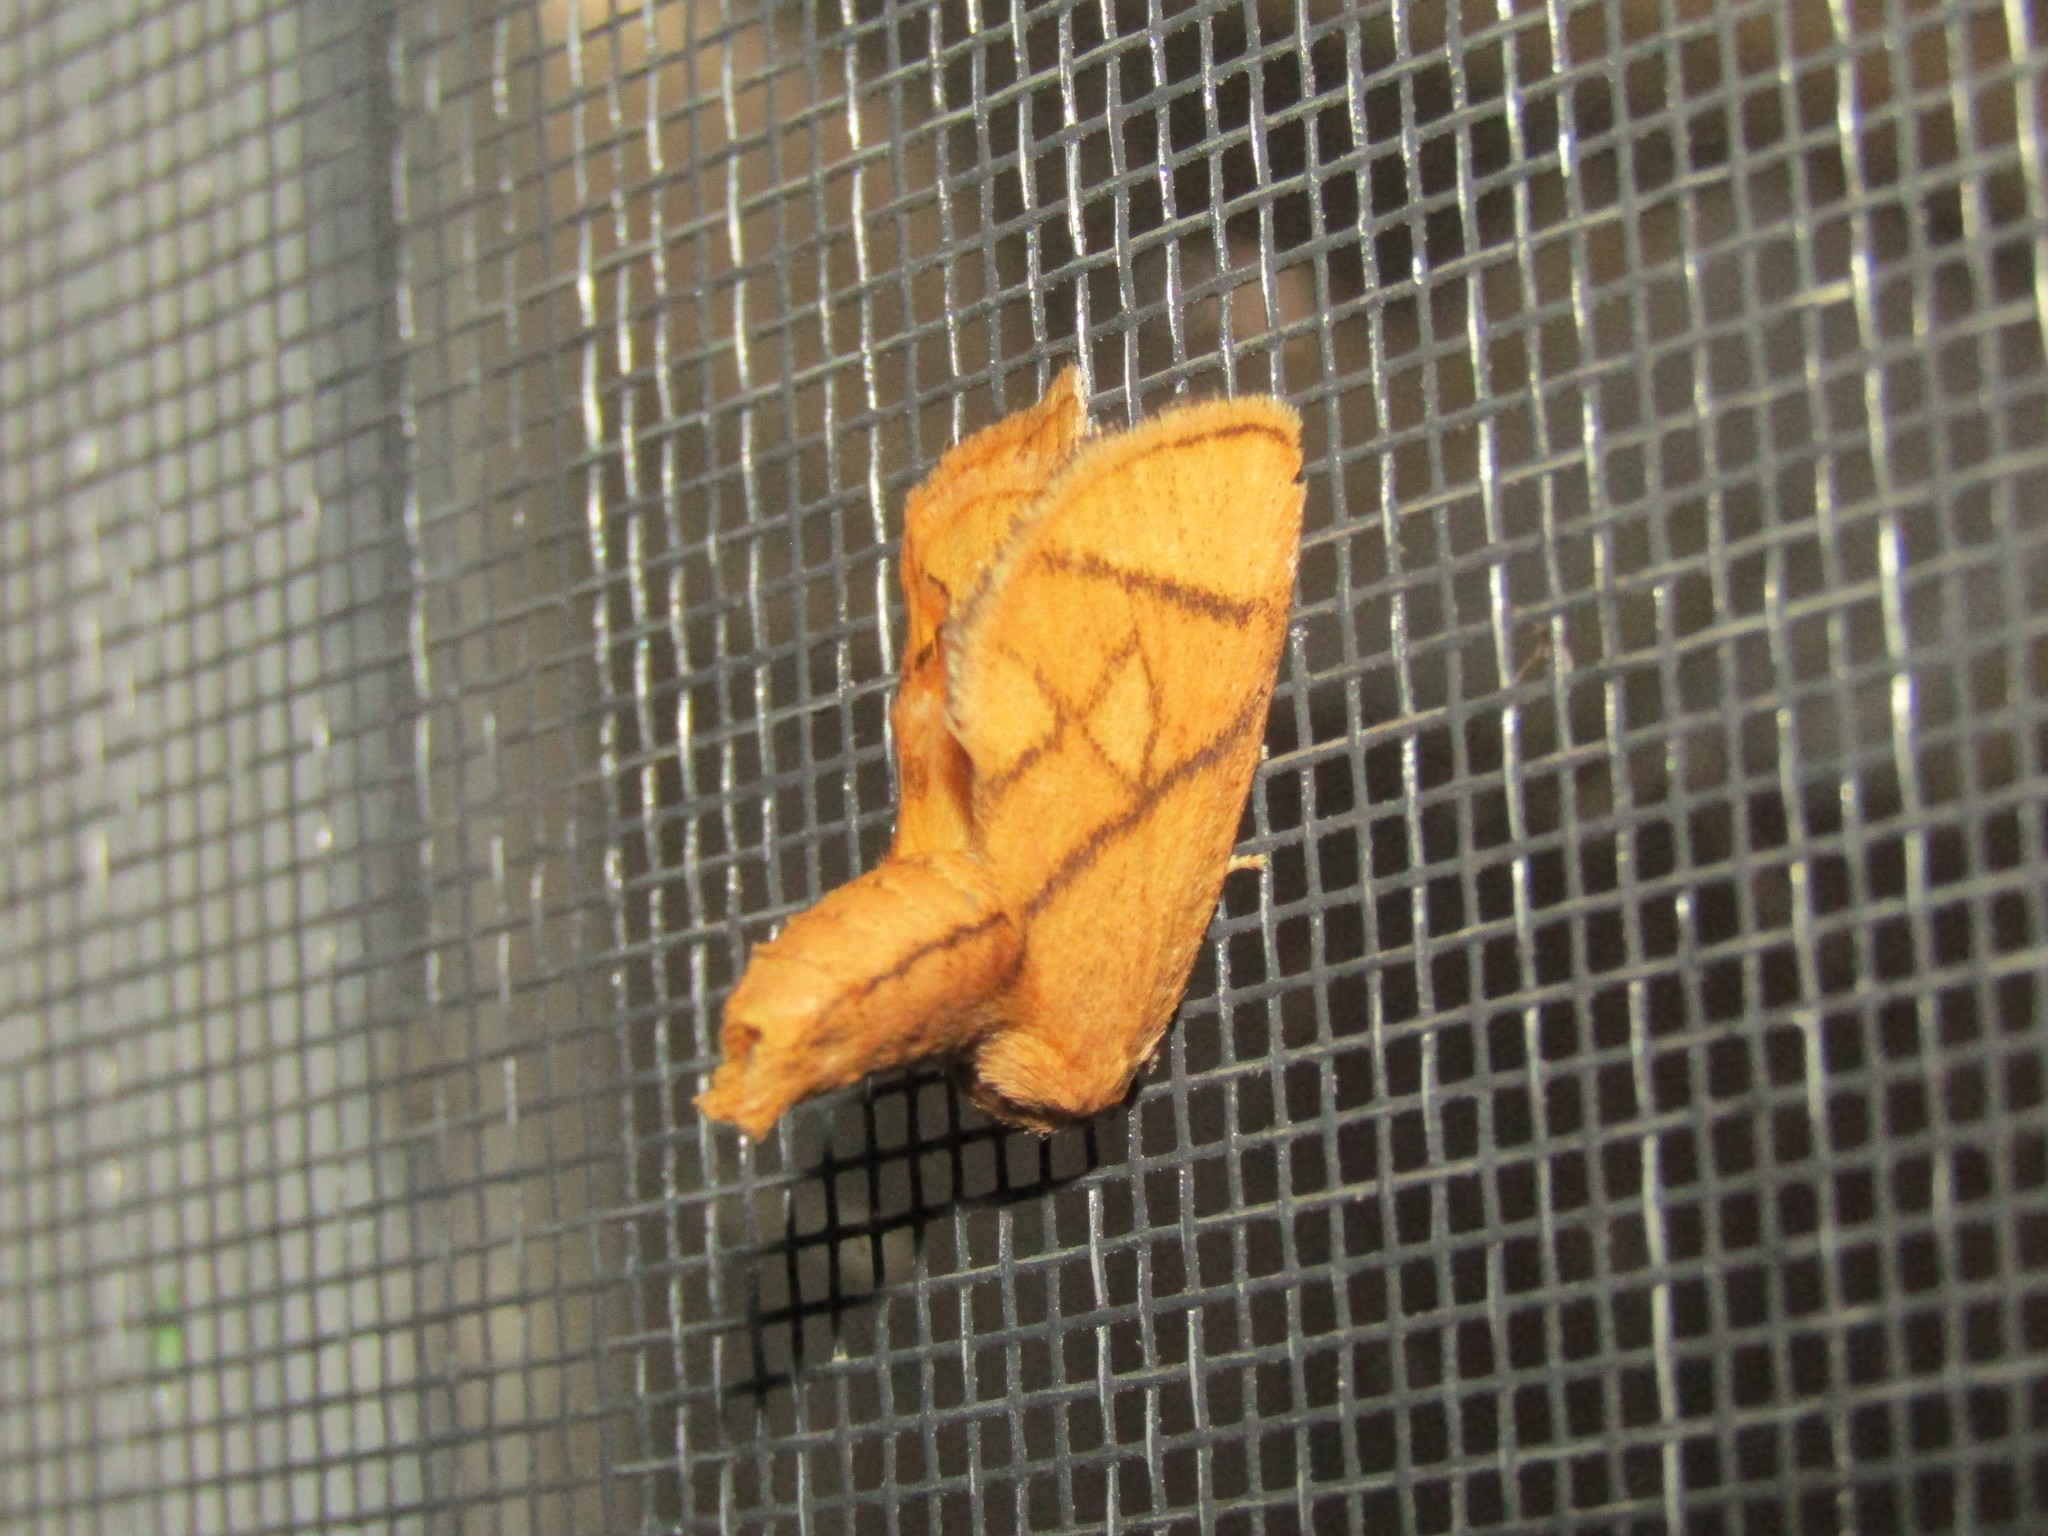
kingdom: Animalia
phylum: Arthropoda
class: Insecta
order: Lepidoptera
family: Limacodidae
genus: Apoda
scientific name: Apoda y-inversa
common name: Yellow-collared slug moth
